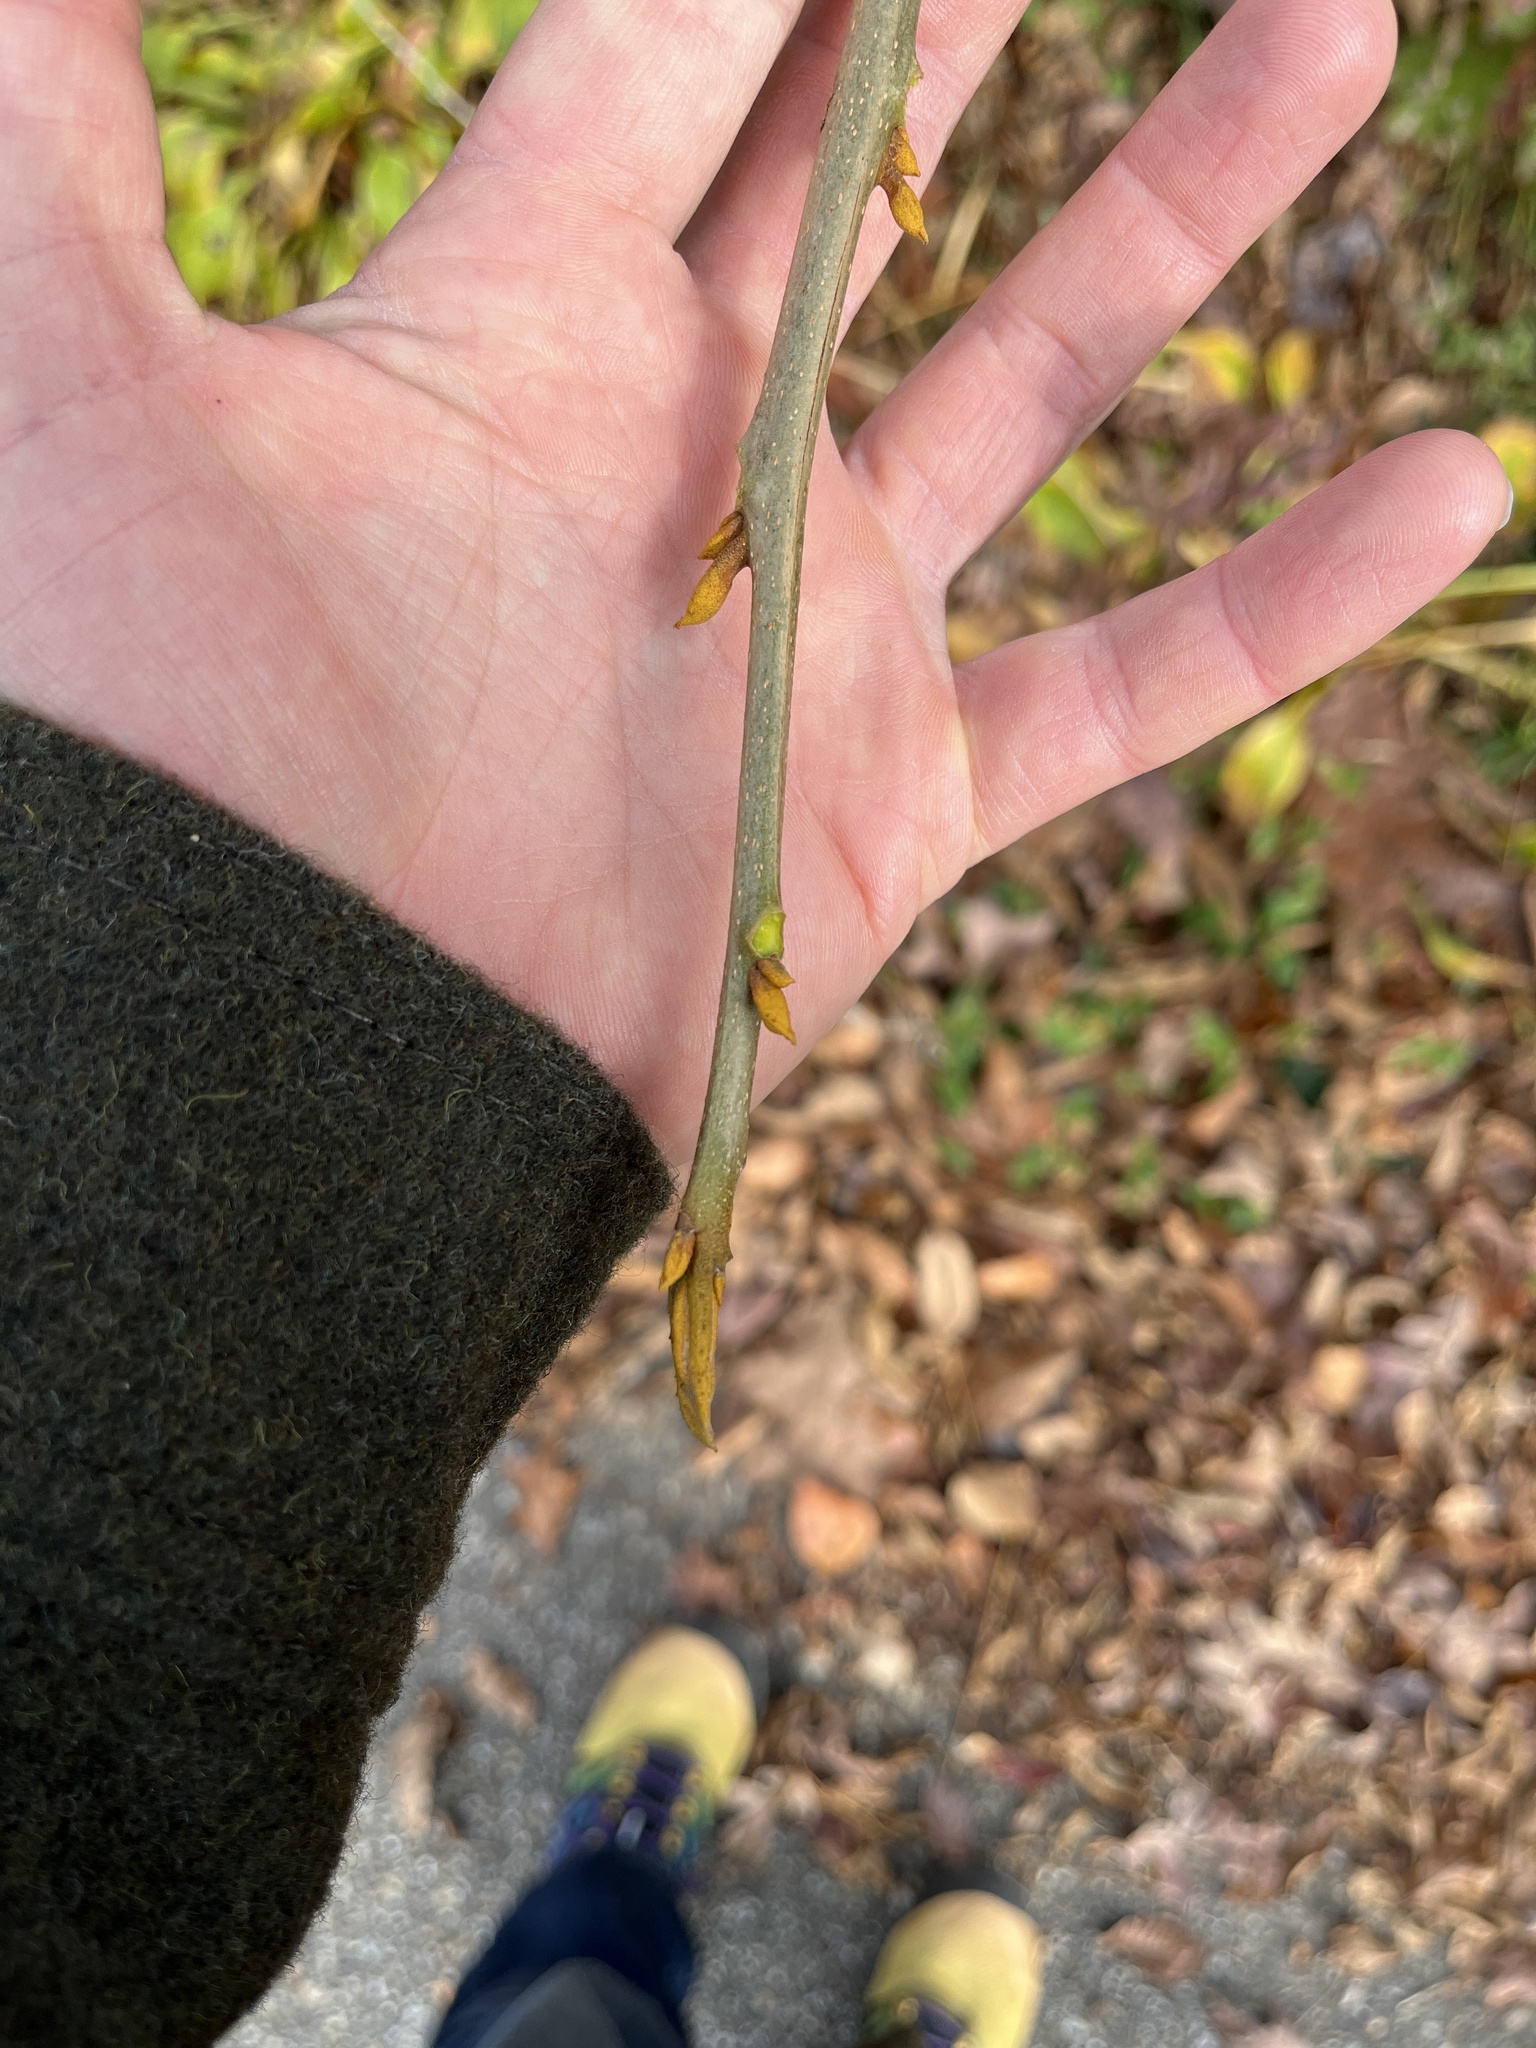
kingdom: Plantae
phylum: Tracheophyta
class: Magnoliopsida
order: Fagales
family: Juglandaceae
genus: Carya
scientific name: Carya cordiformis
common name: Bitternut hickory
